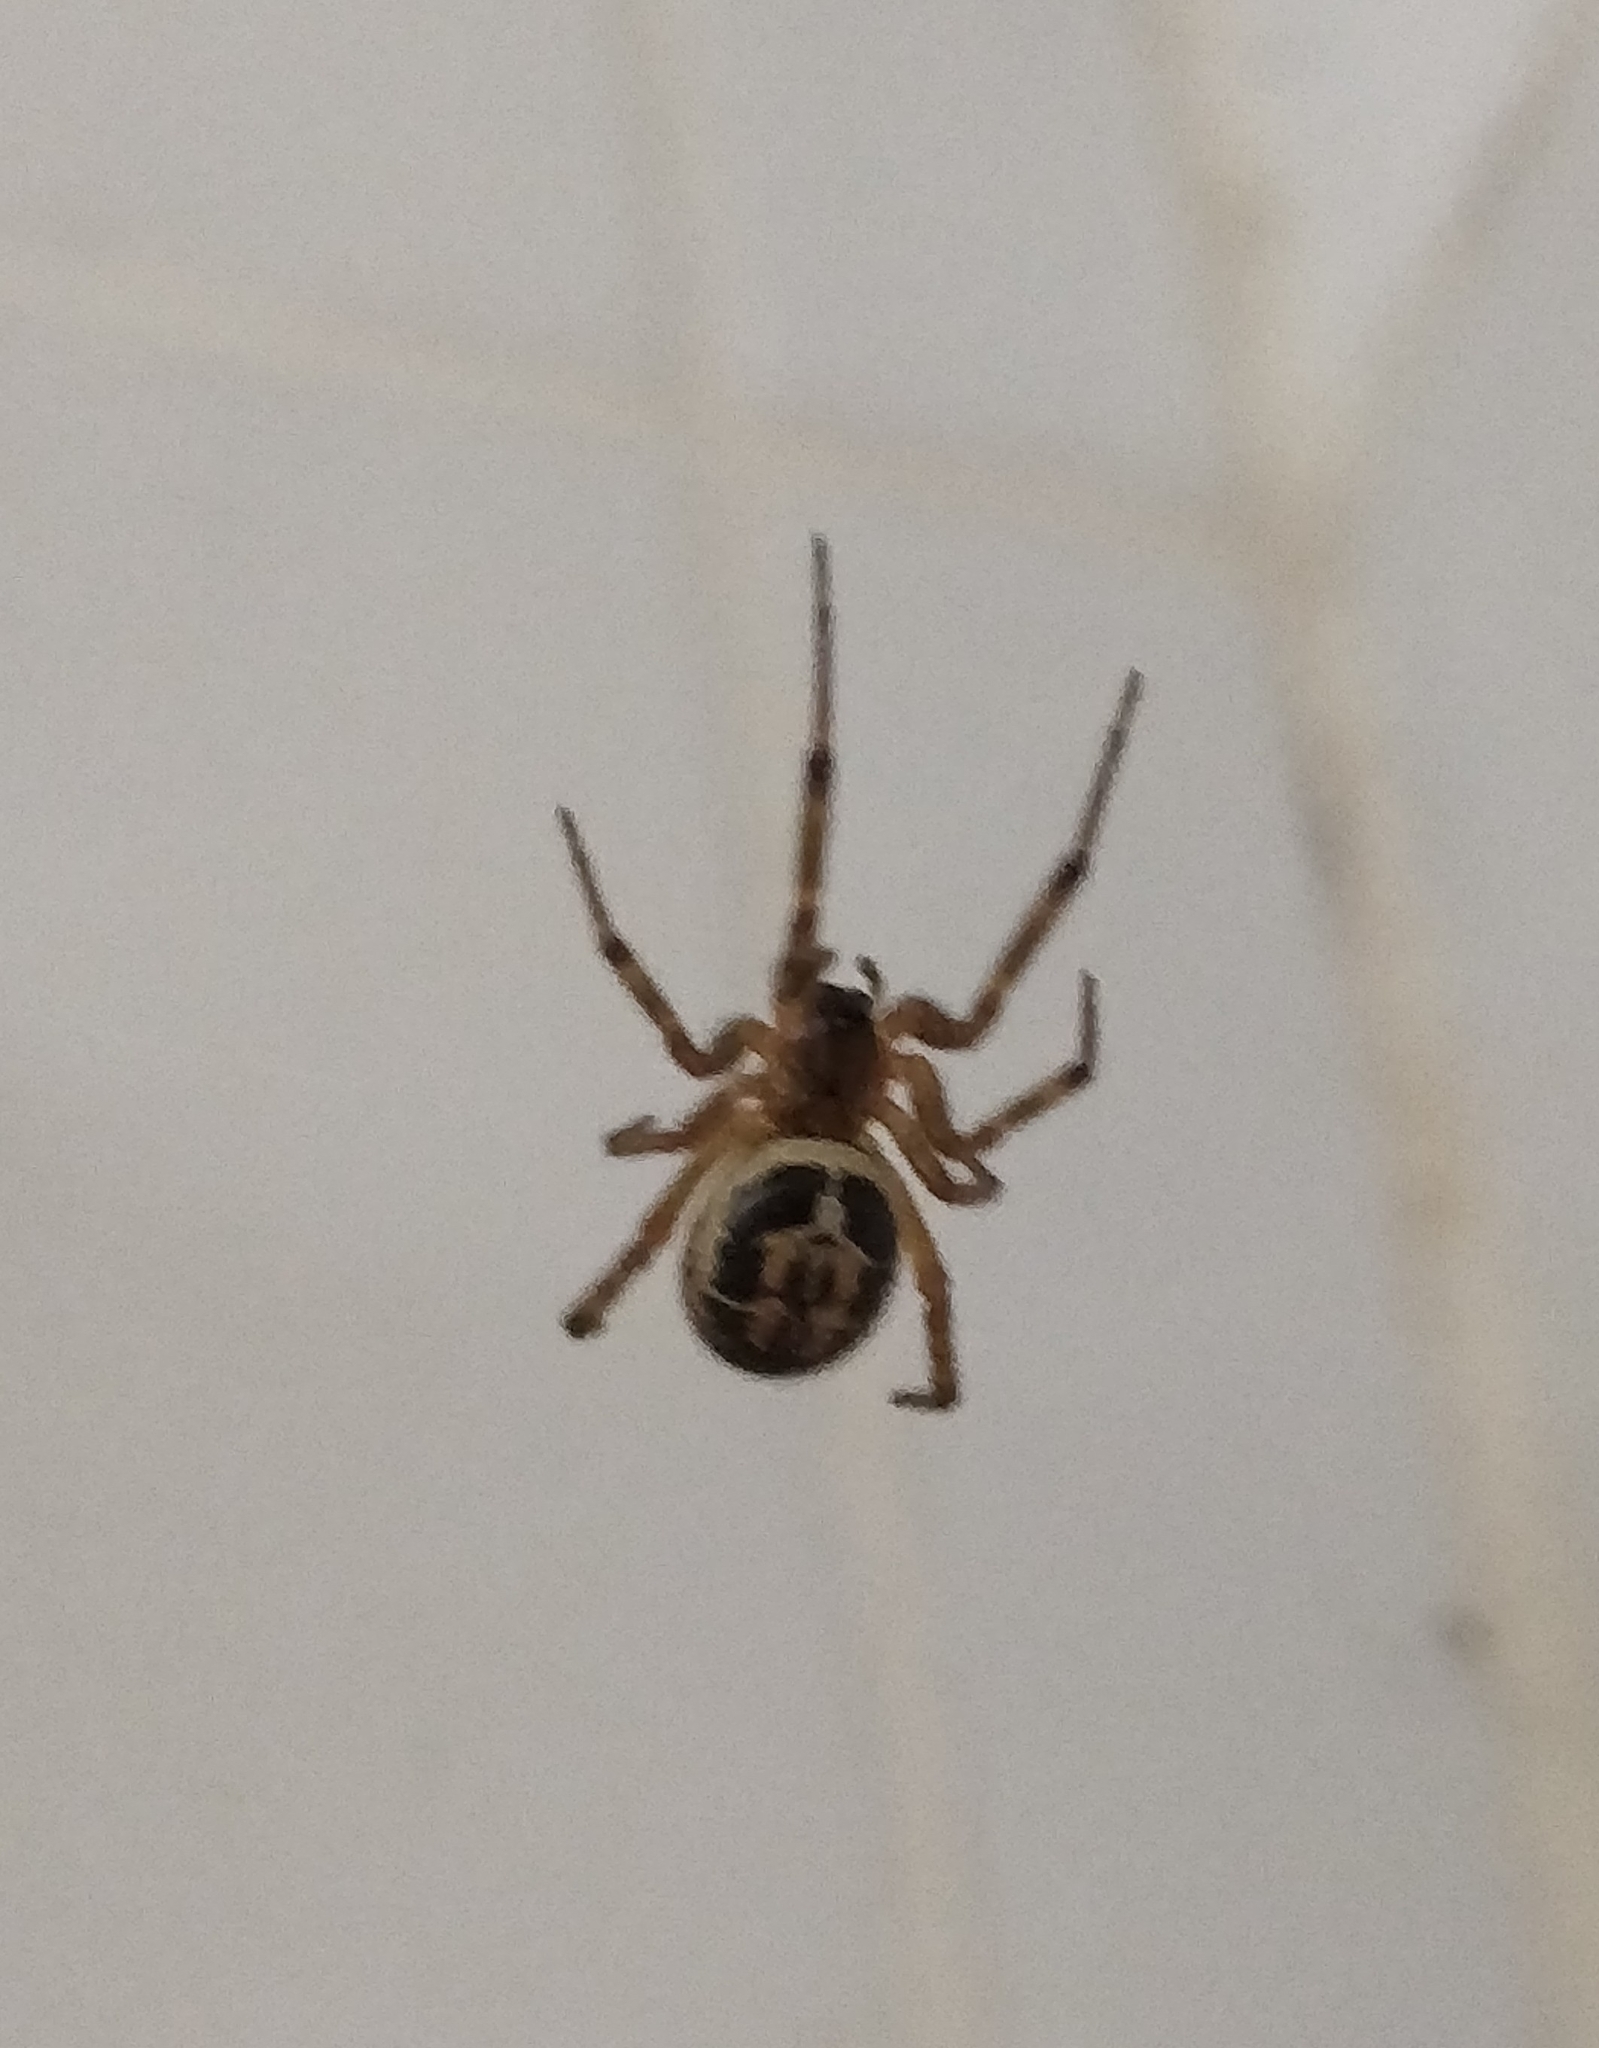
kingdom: Animalia
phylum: Arthropoda
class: Arachnida
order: Araneae
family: Theridiidae
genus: Steatoda
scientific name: Steatoda nobilis
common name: Cobweb weaver
